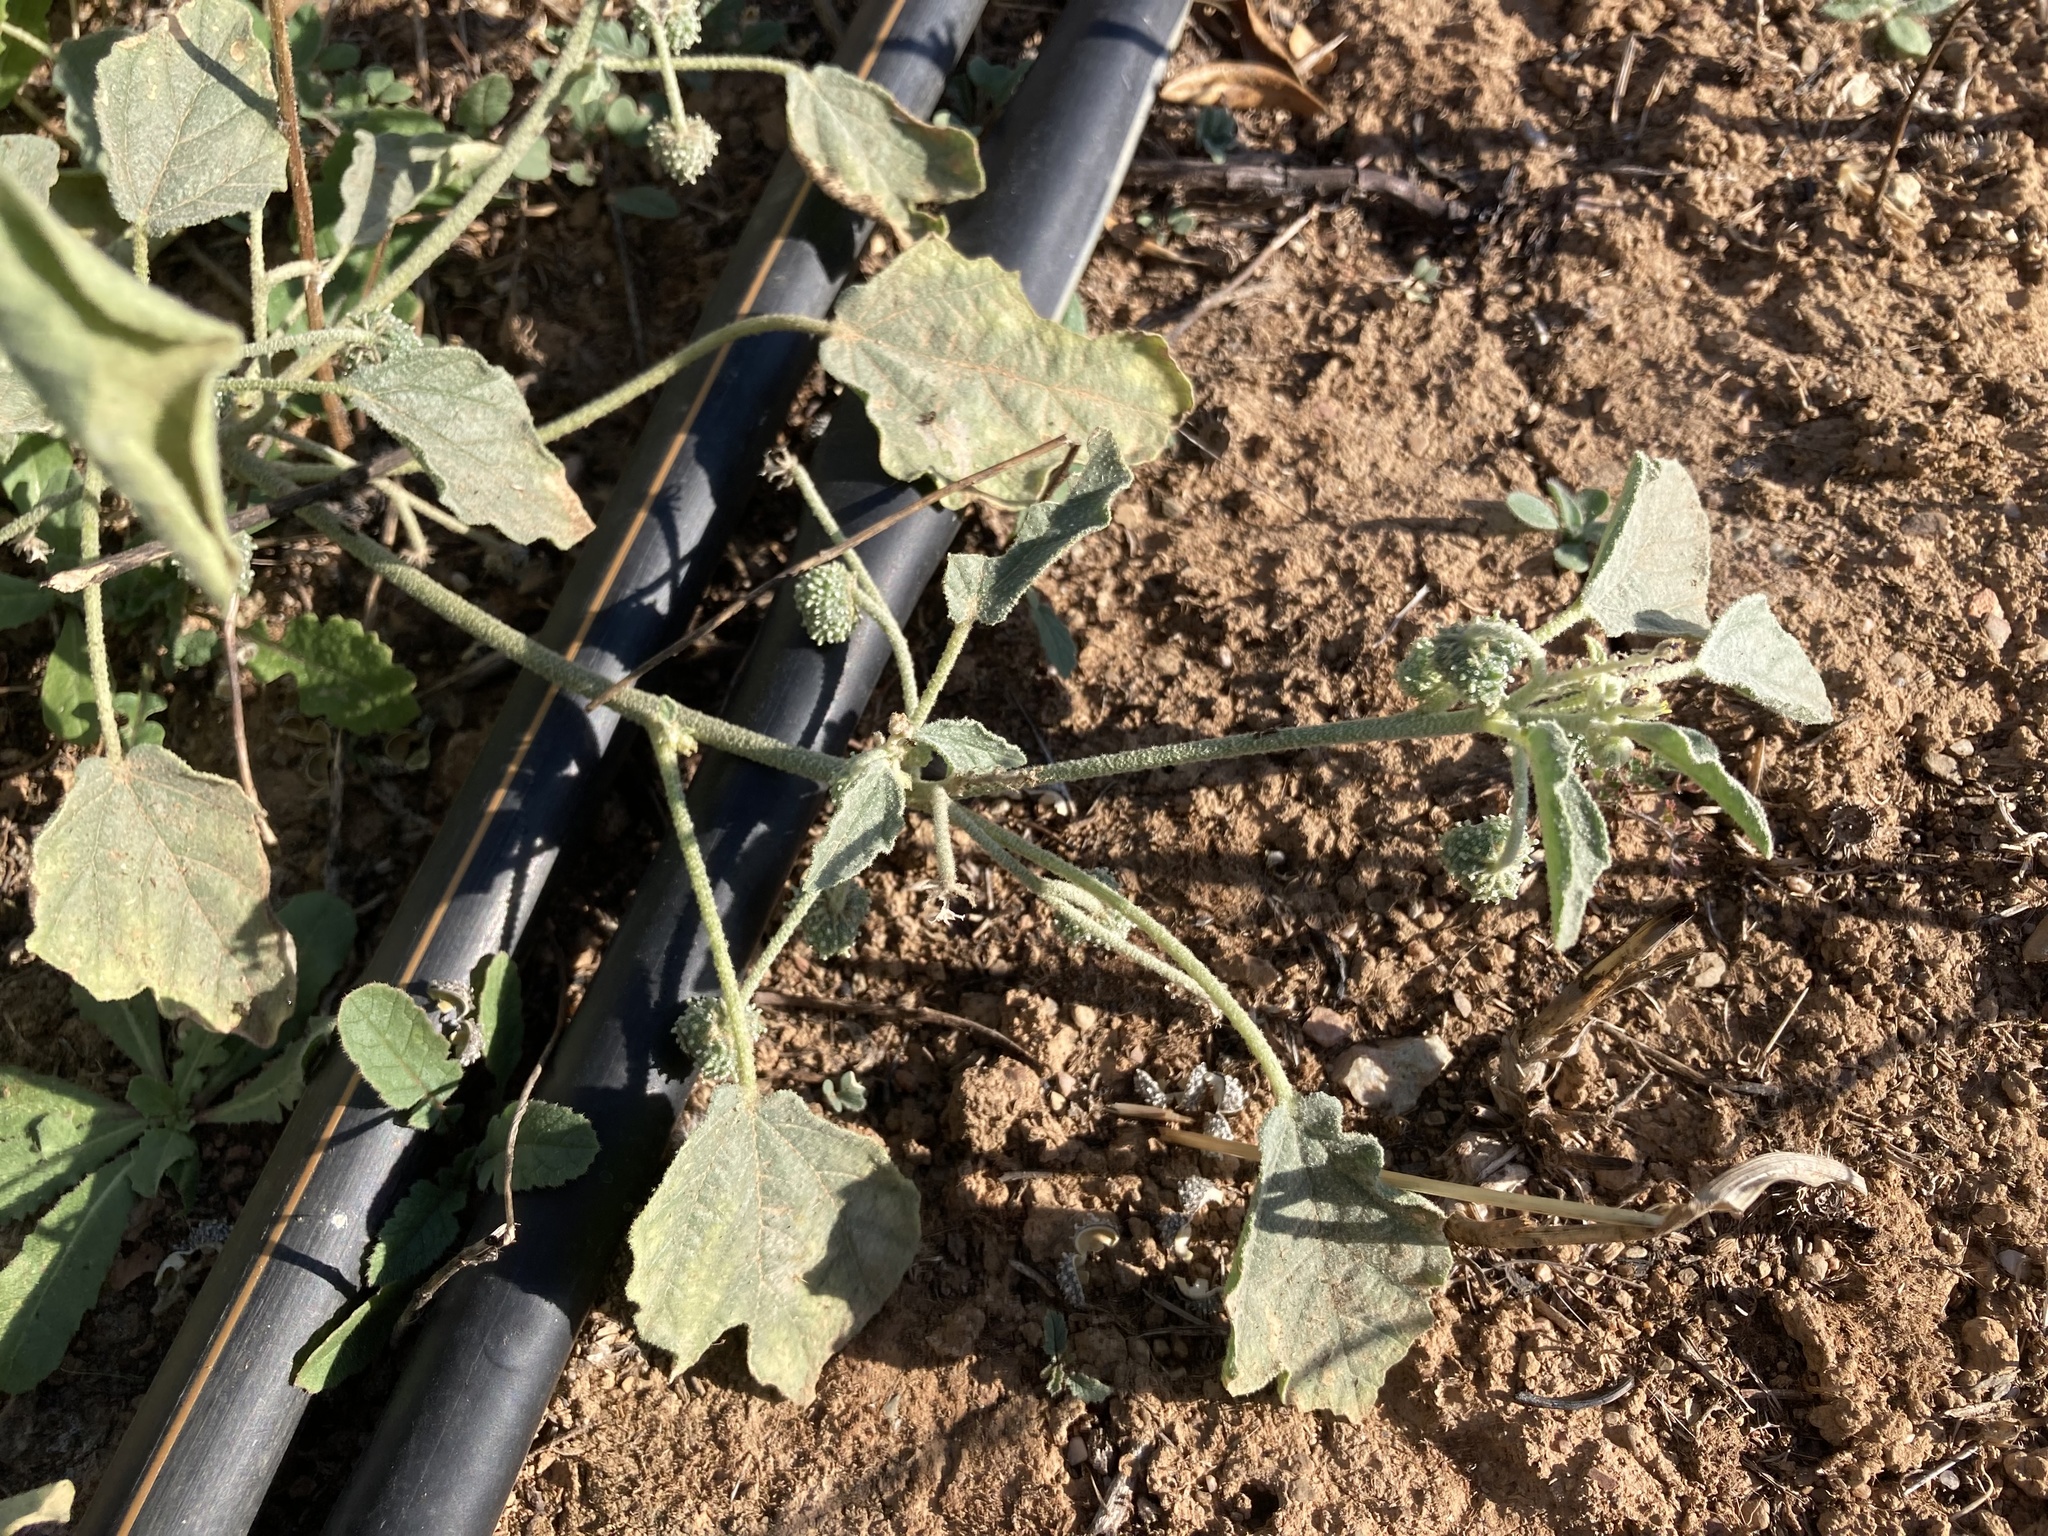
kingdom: Plantae
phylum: Tracheophyta
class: Magnoliopsida
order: Malpighiales
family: Euphorbiaceae
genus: Chrozophora
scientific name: Chrozophora tinctoria
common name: Dyer's litmus
